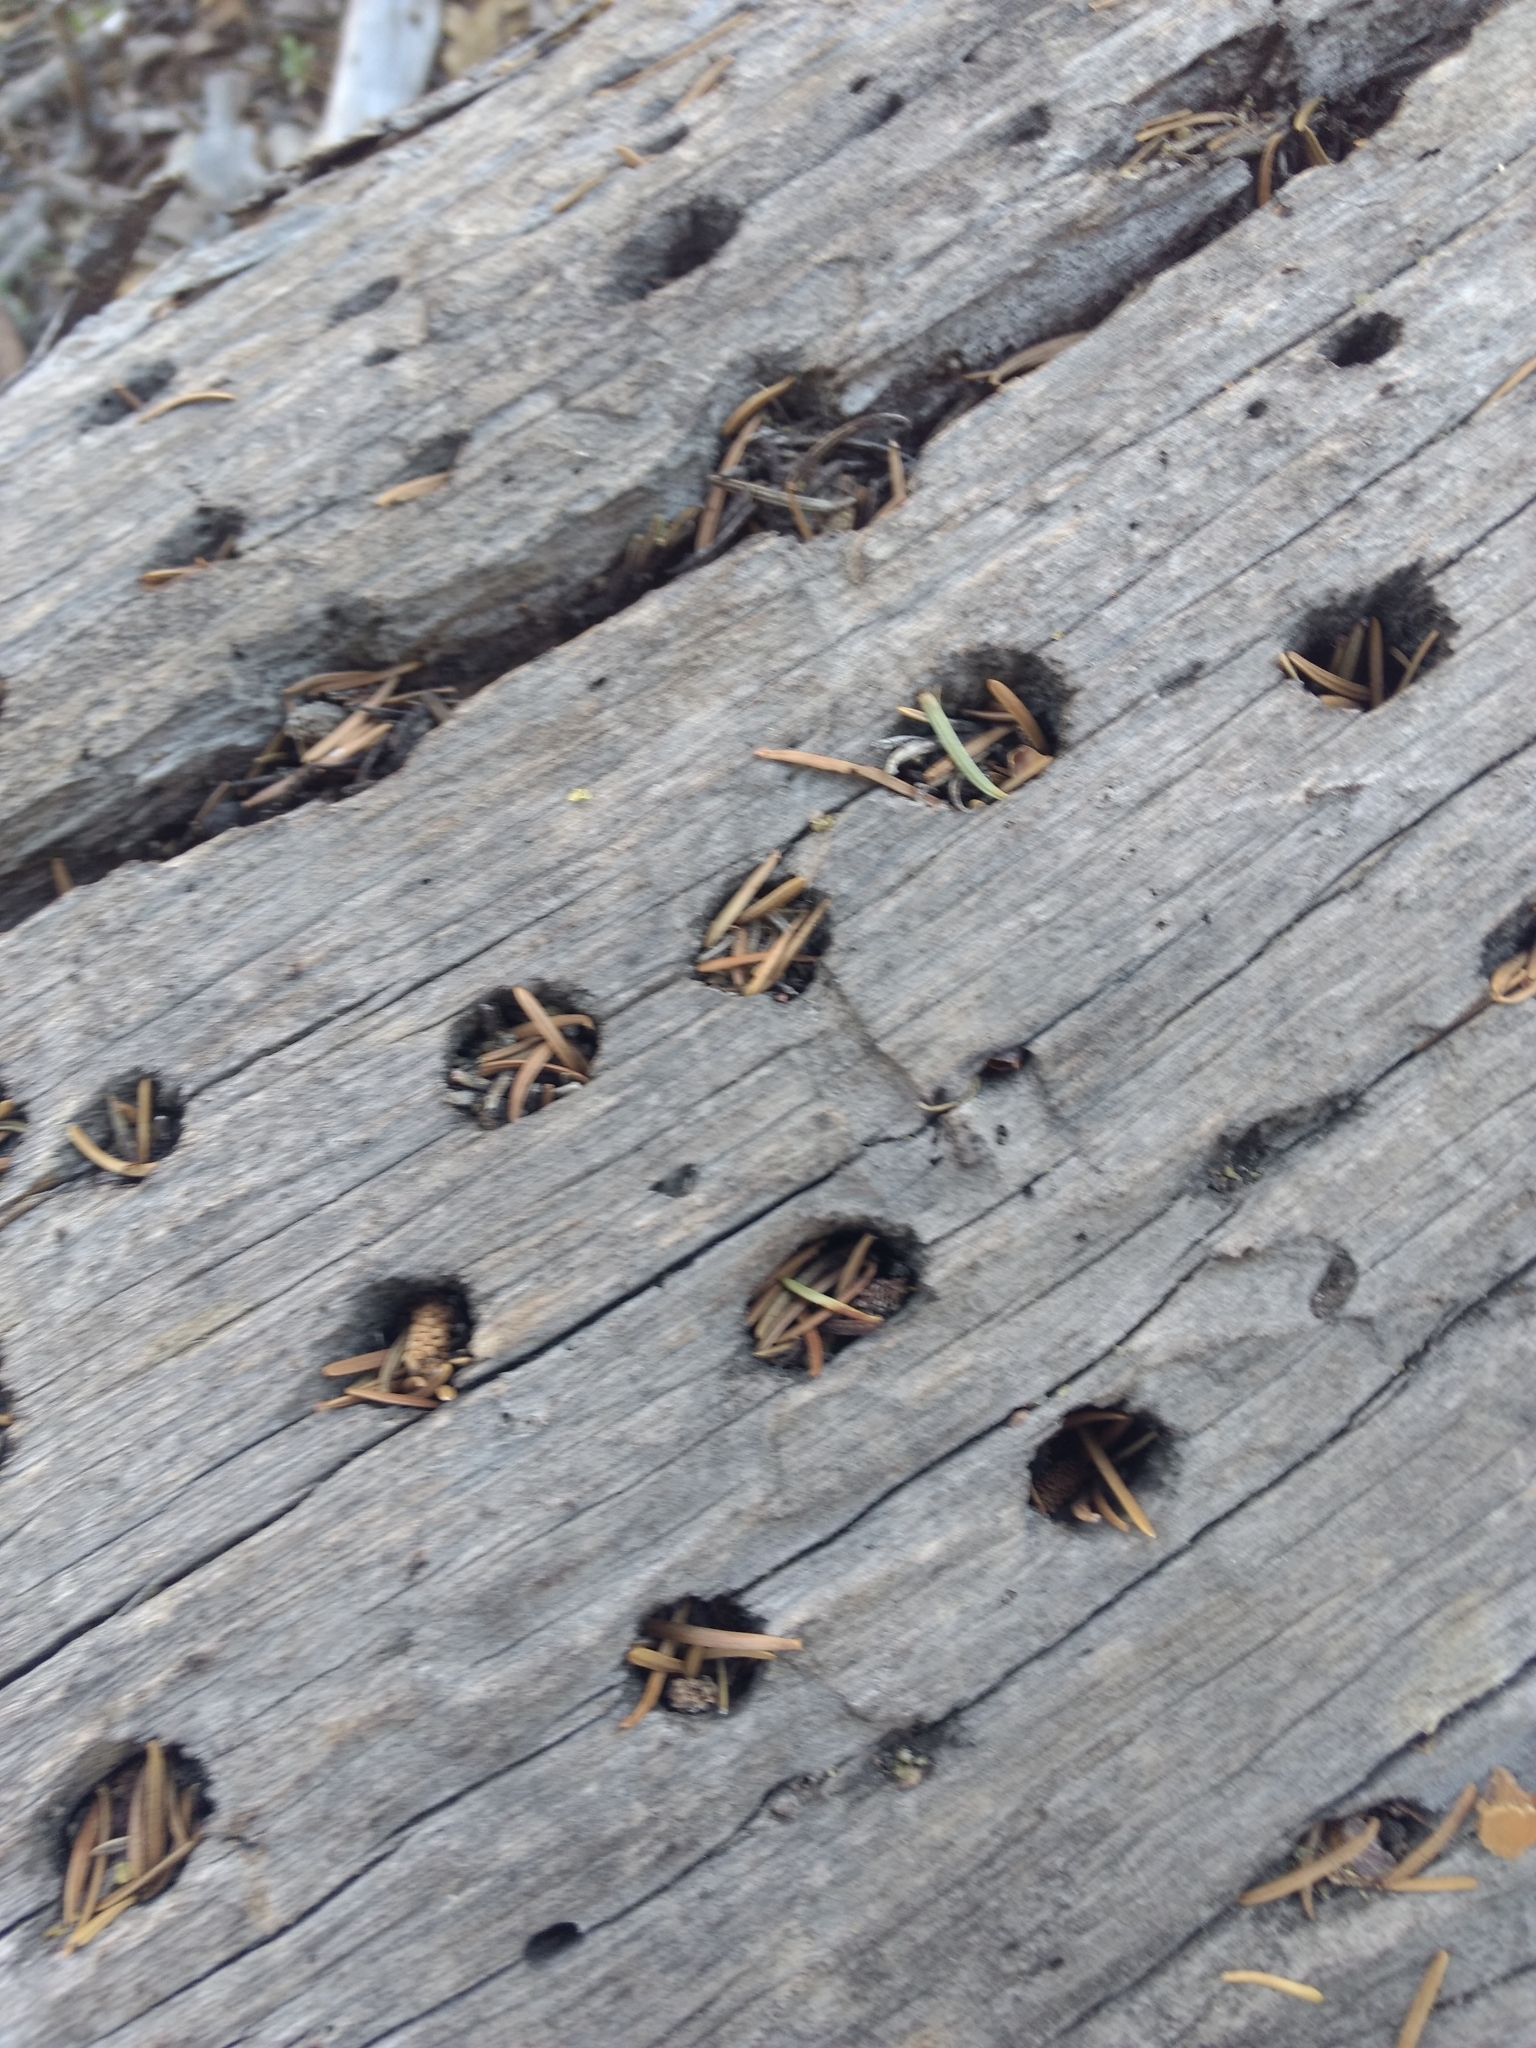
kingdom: Animalia
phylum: Chordata
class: Aves
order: Piciformes
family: Picidae
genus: Melanerpes
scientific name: Melanerpes formicivorus
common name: Acorn woodpecker
